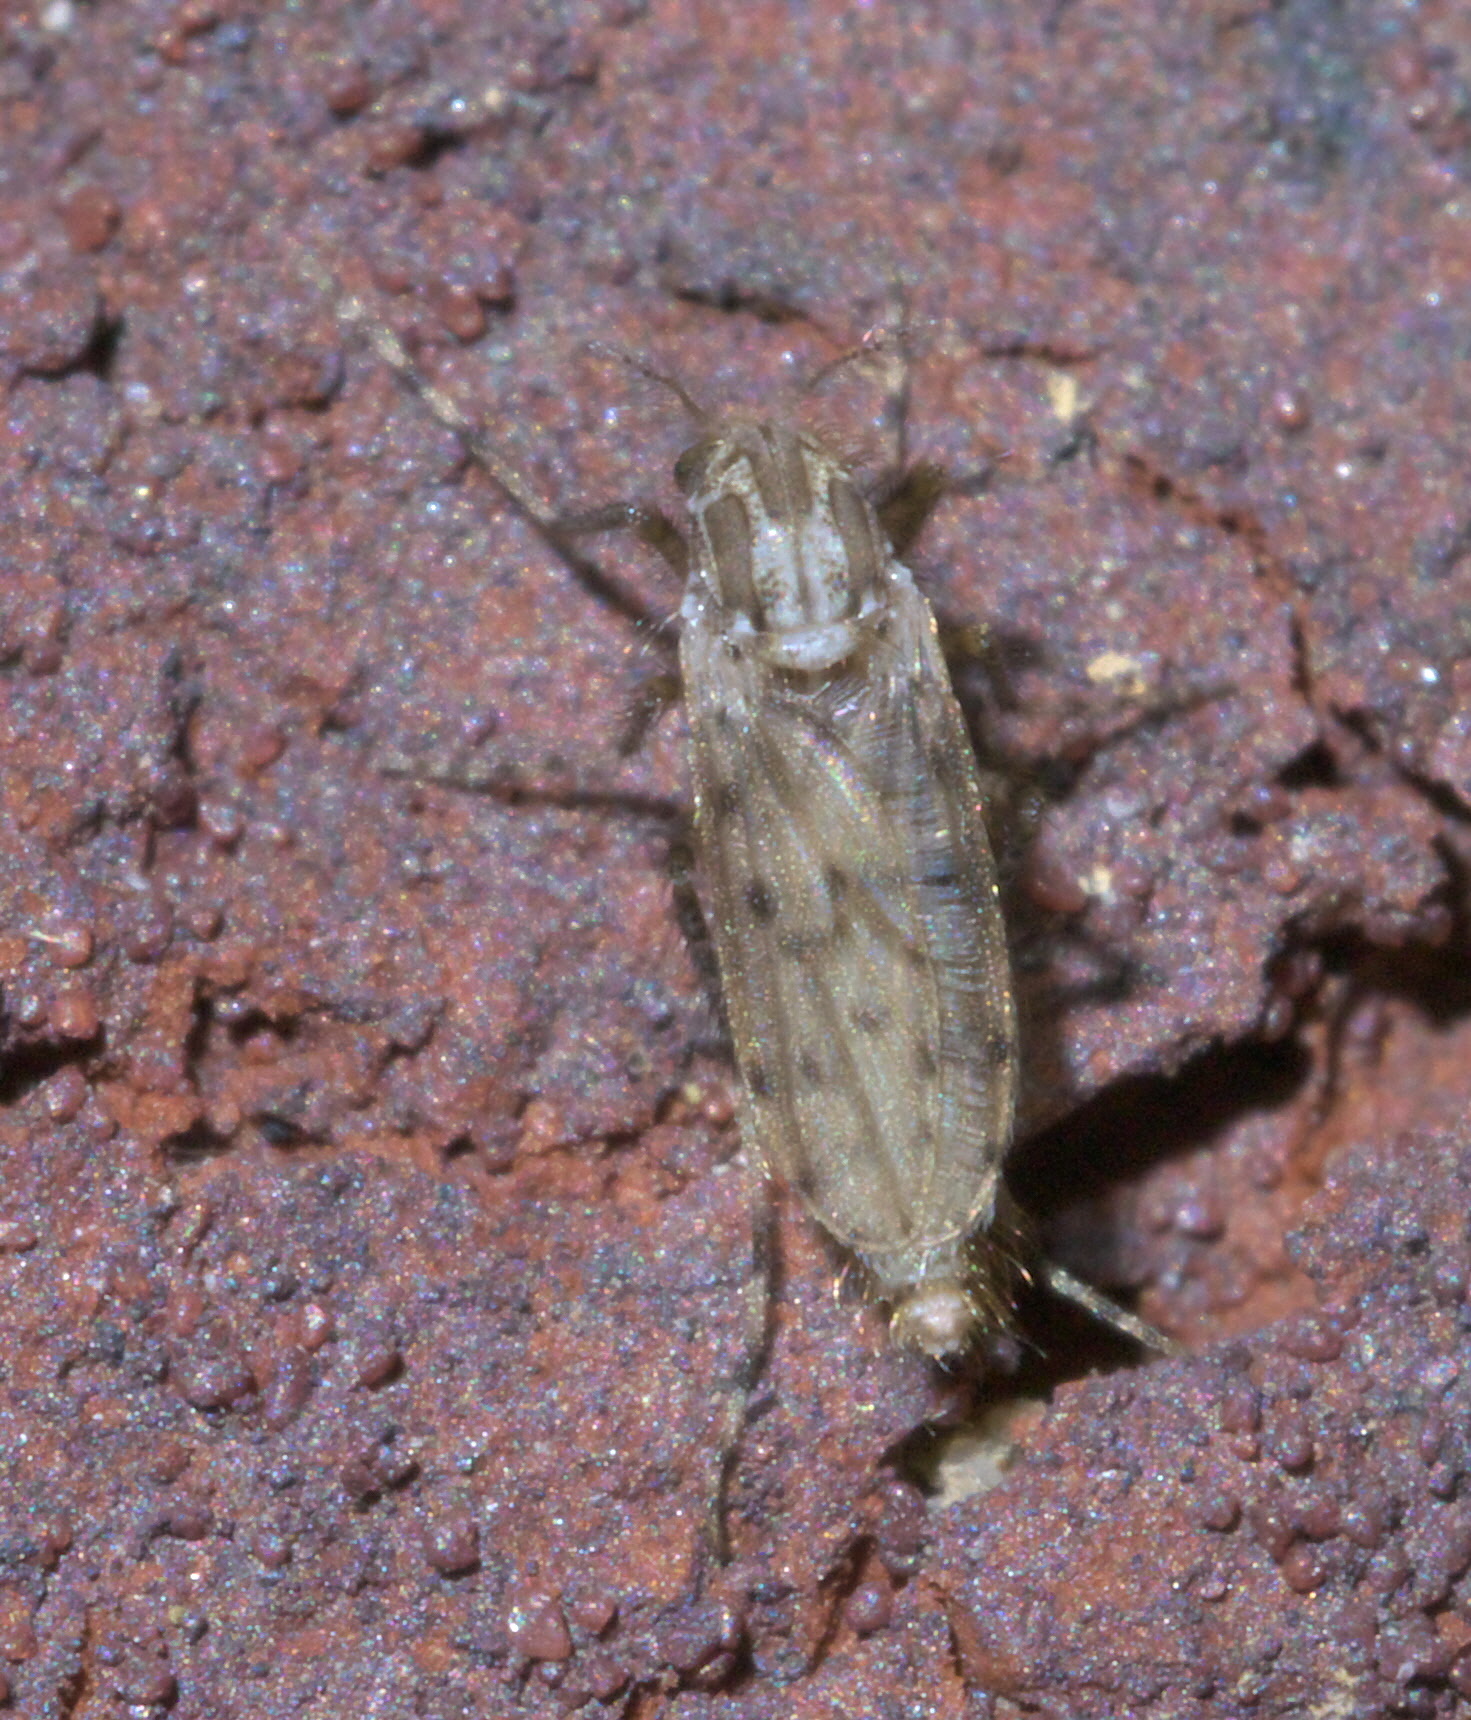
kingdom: Animalia
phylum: Arthropoda
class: Insecta
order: Diptera
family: Chaoboridae
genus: Chaoborus
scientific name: Chaoborus punctipennis
